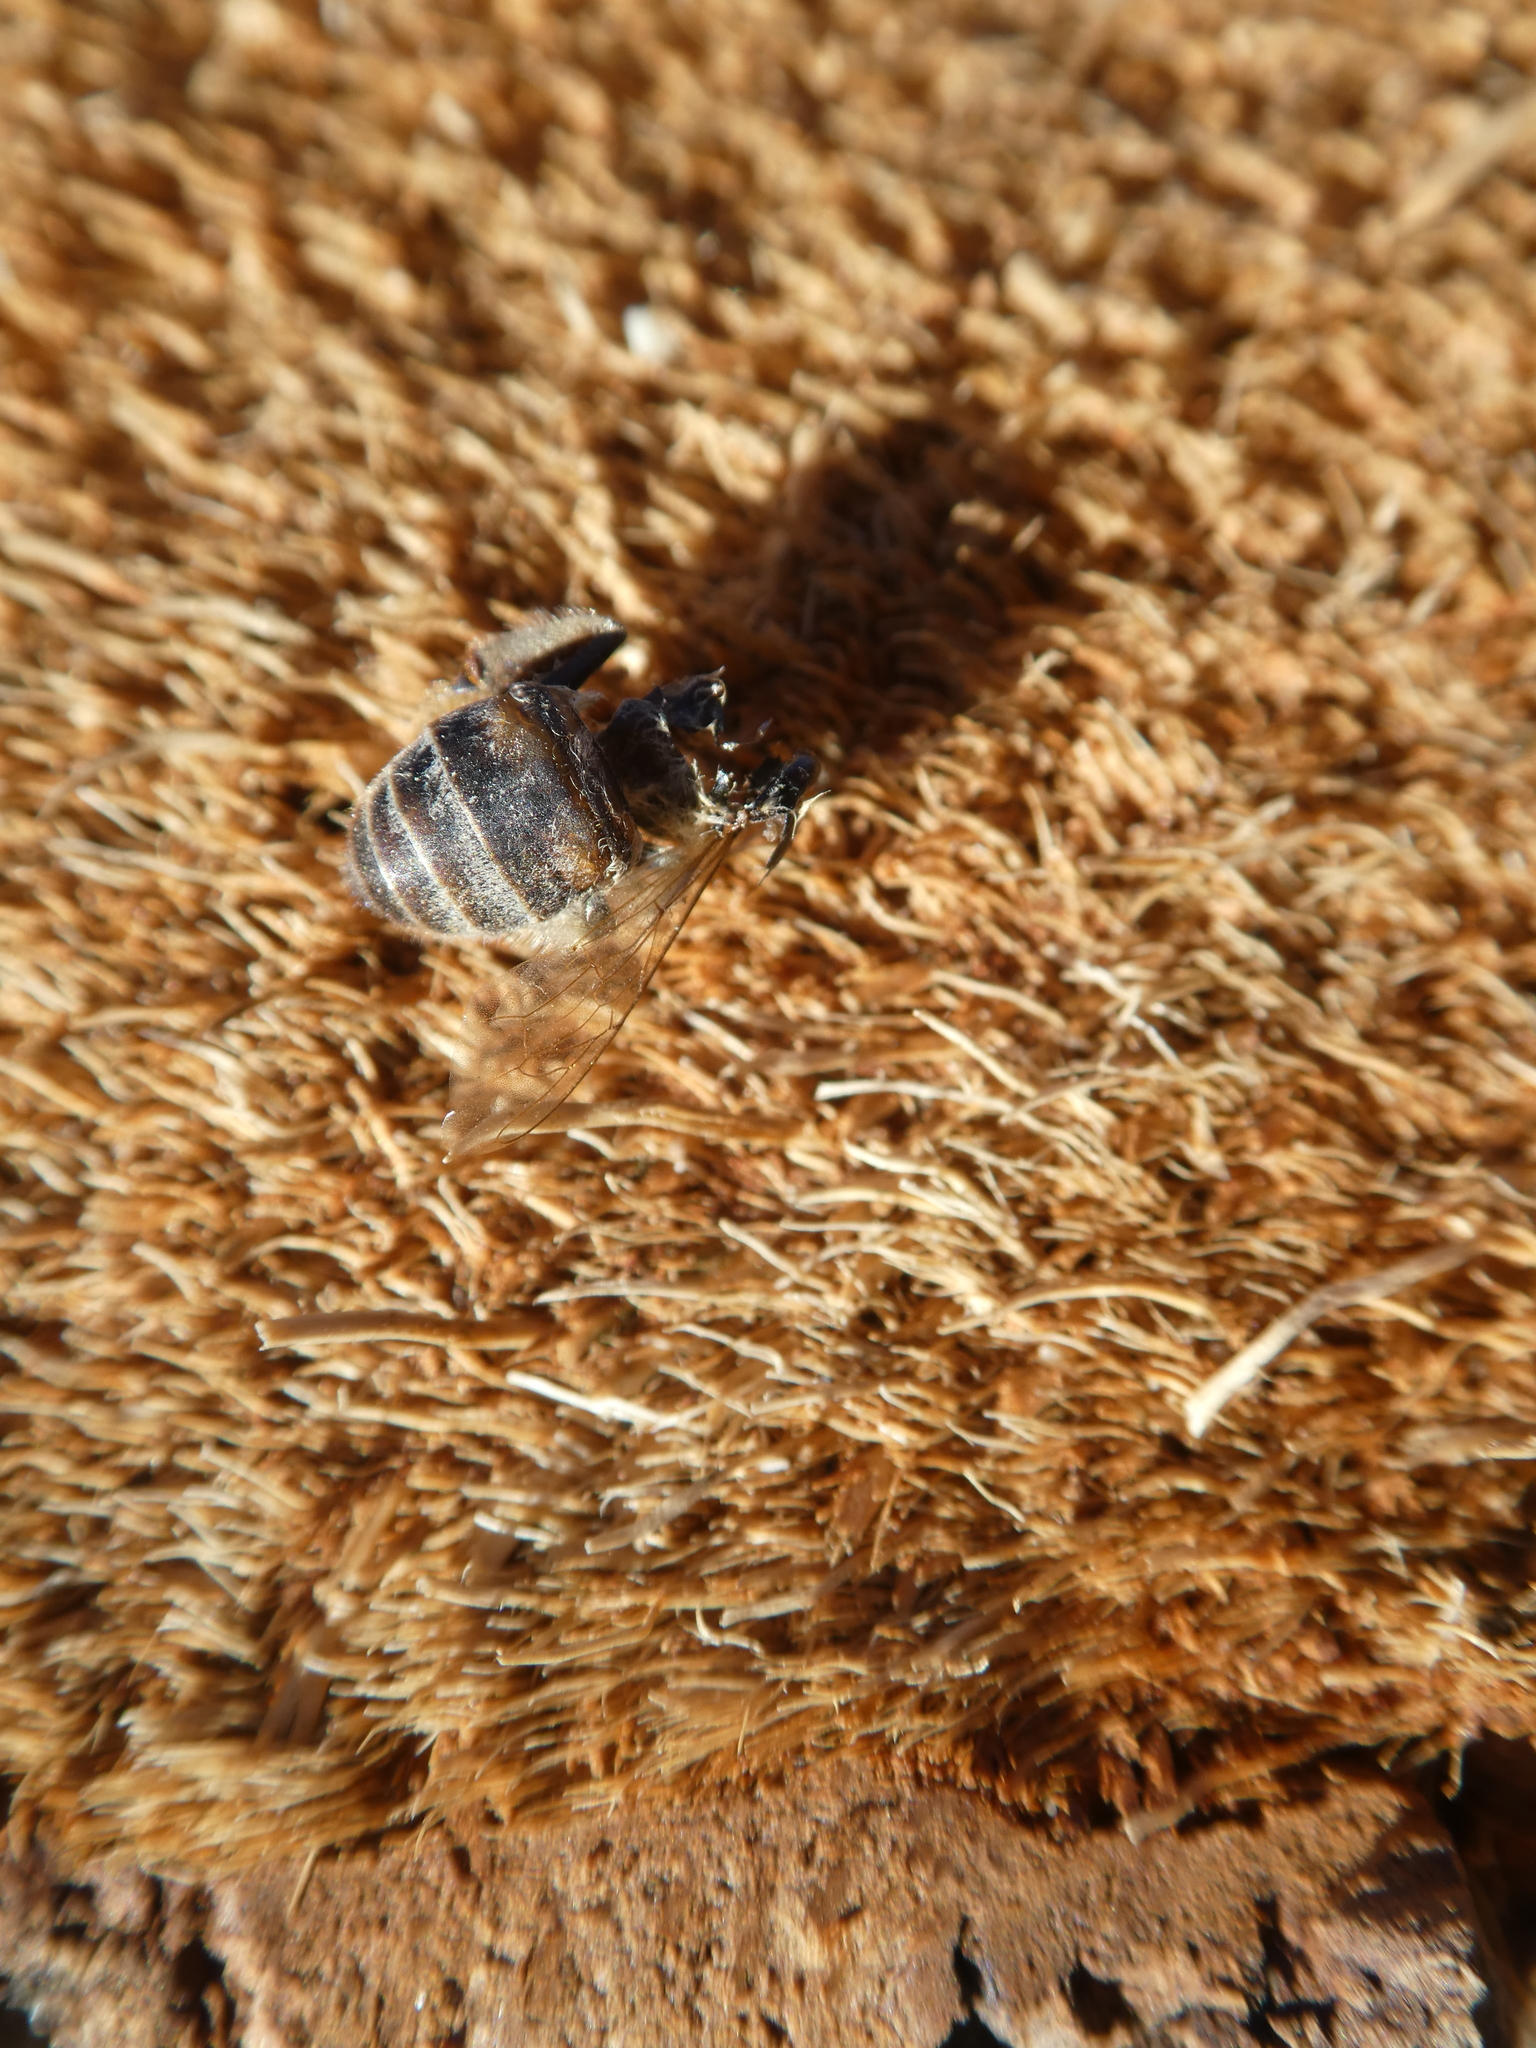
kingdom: Animalia
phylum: Arthropoda
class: Insecta
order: Hymenoptera
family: Apidae
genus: Apis
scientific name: Apis mellifera
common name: Honey bee
